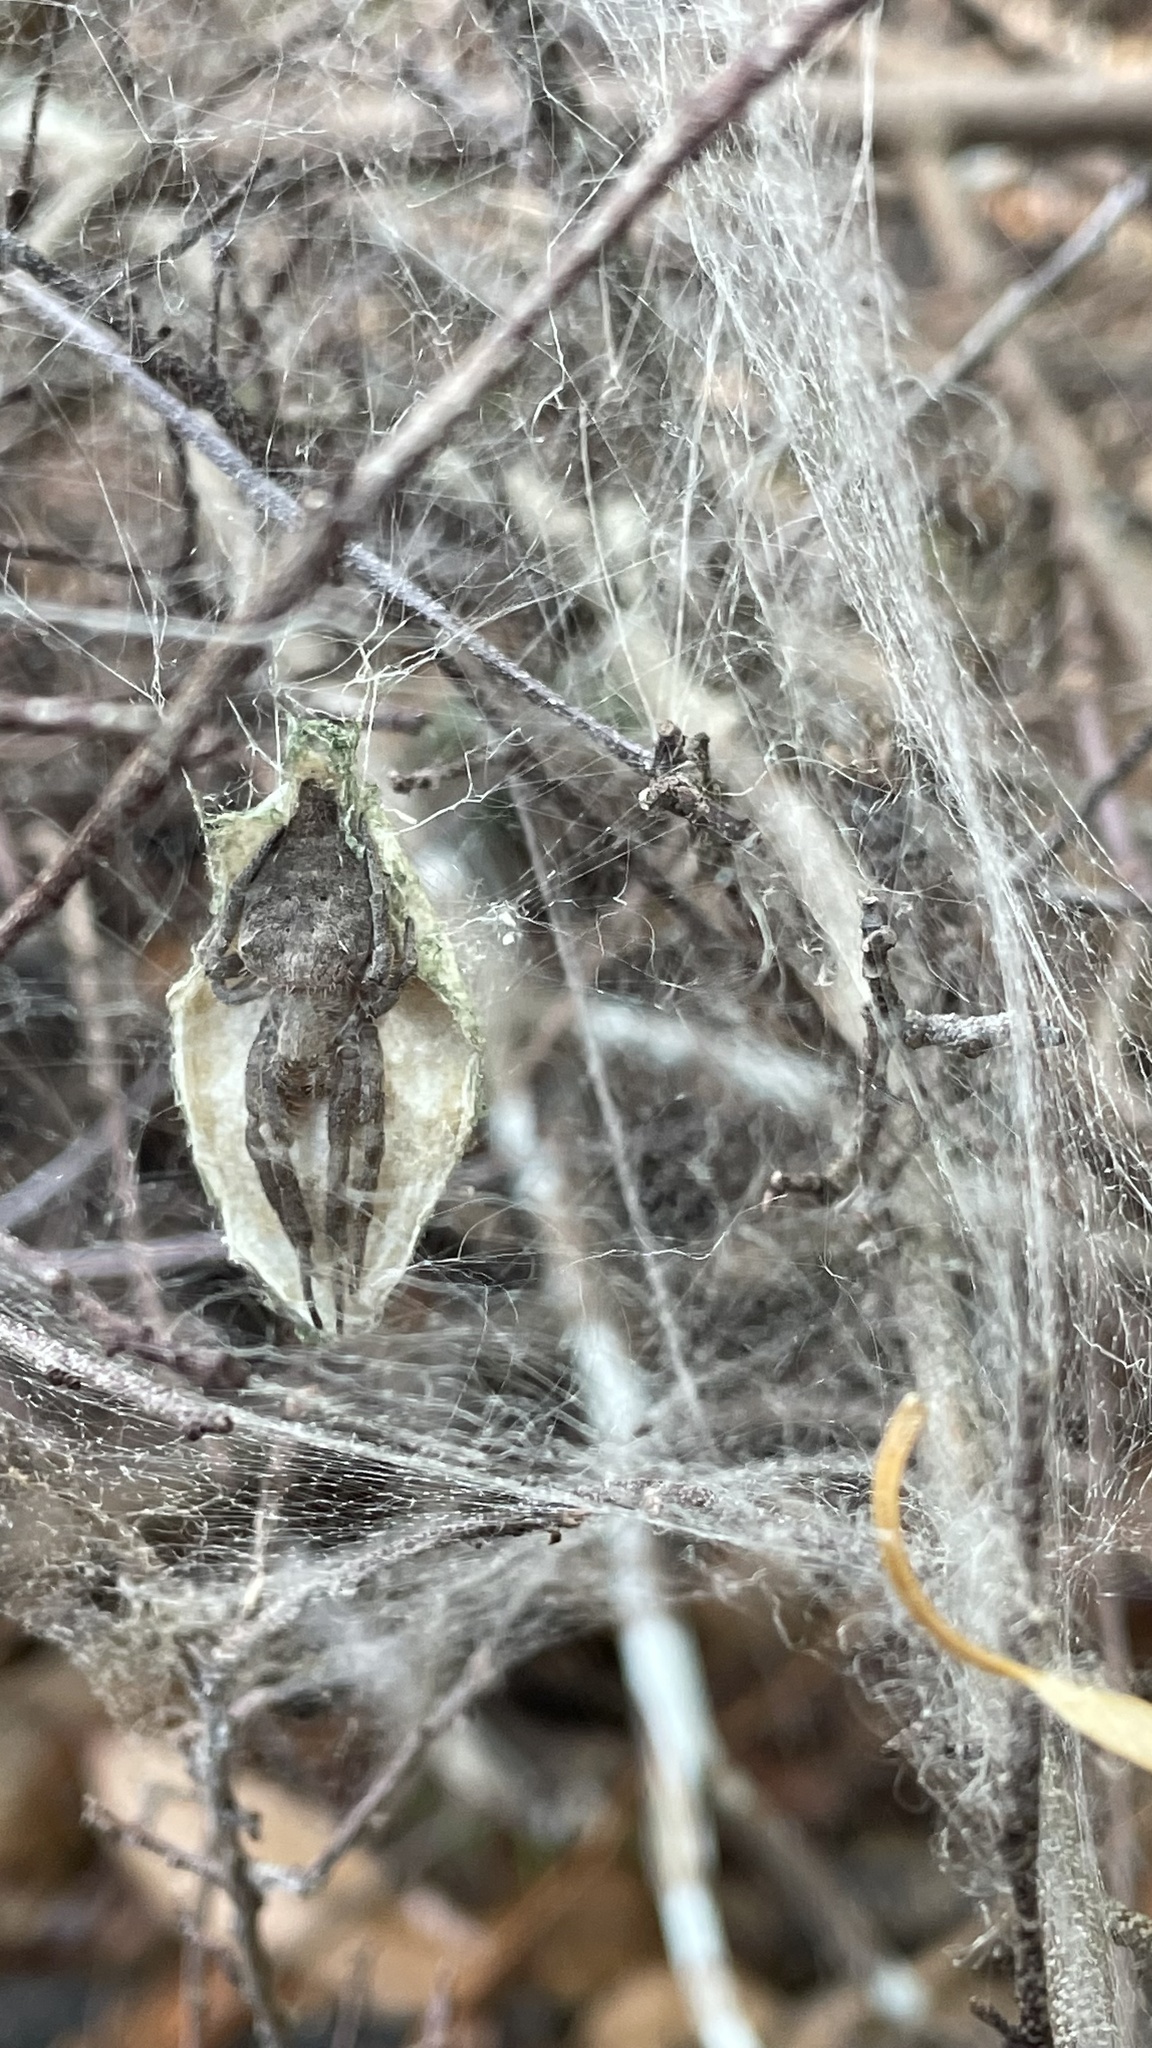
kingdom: Animalia
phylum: Arthropoda
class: Arachnida
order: Araneae
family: Araneidae
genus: Cyrtophora
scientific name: Cyrtophora exanthematica
